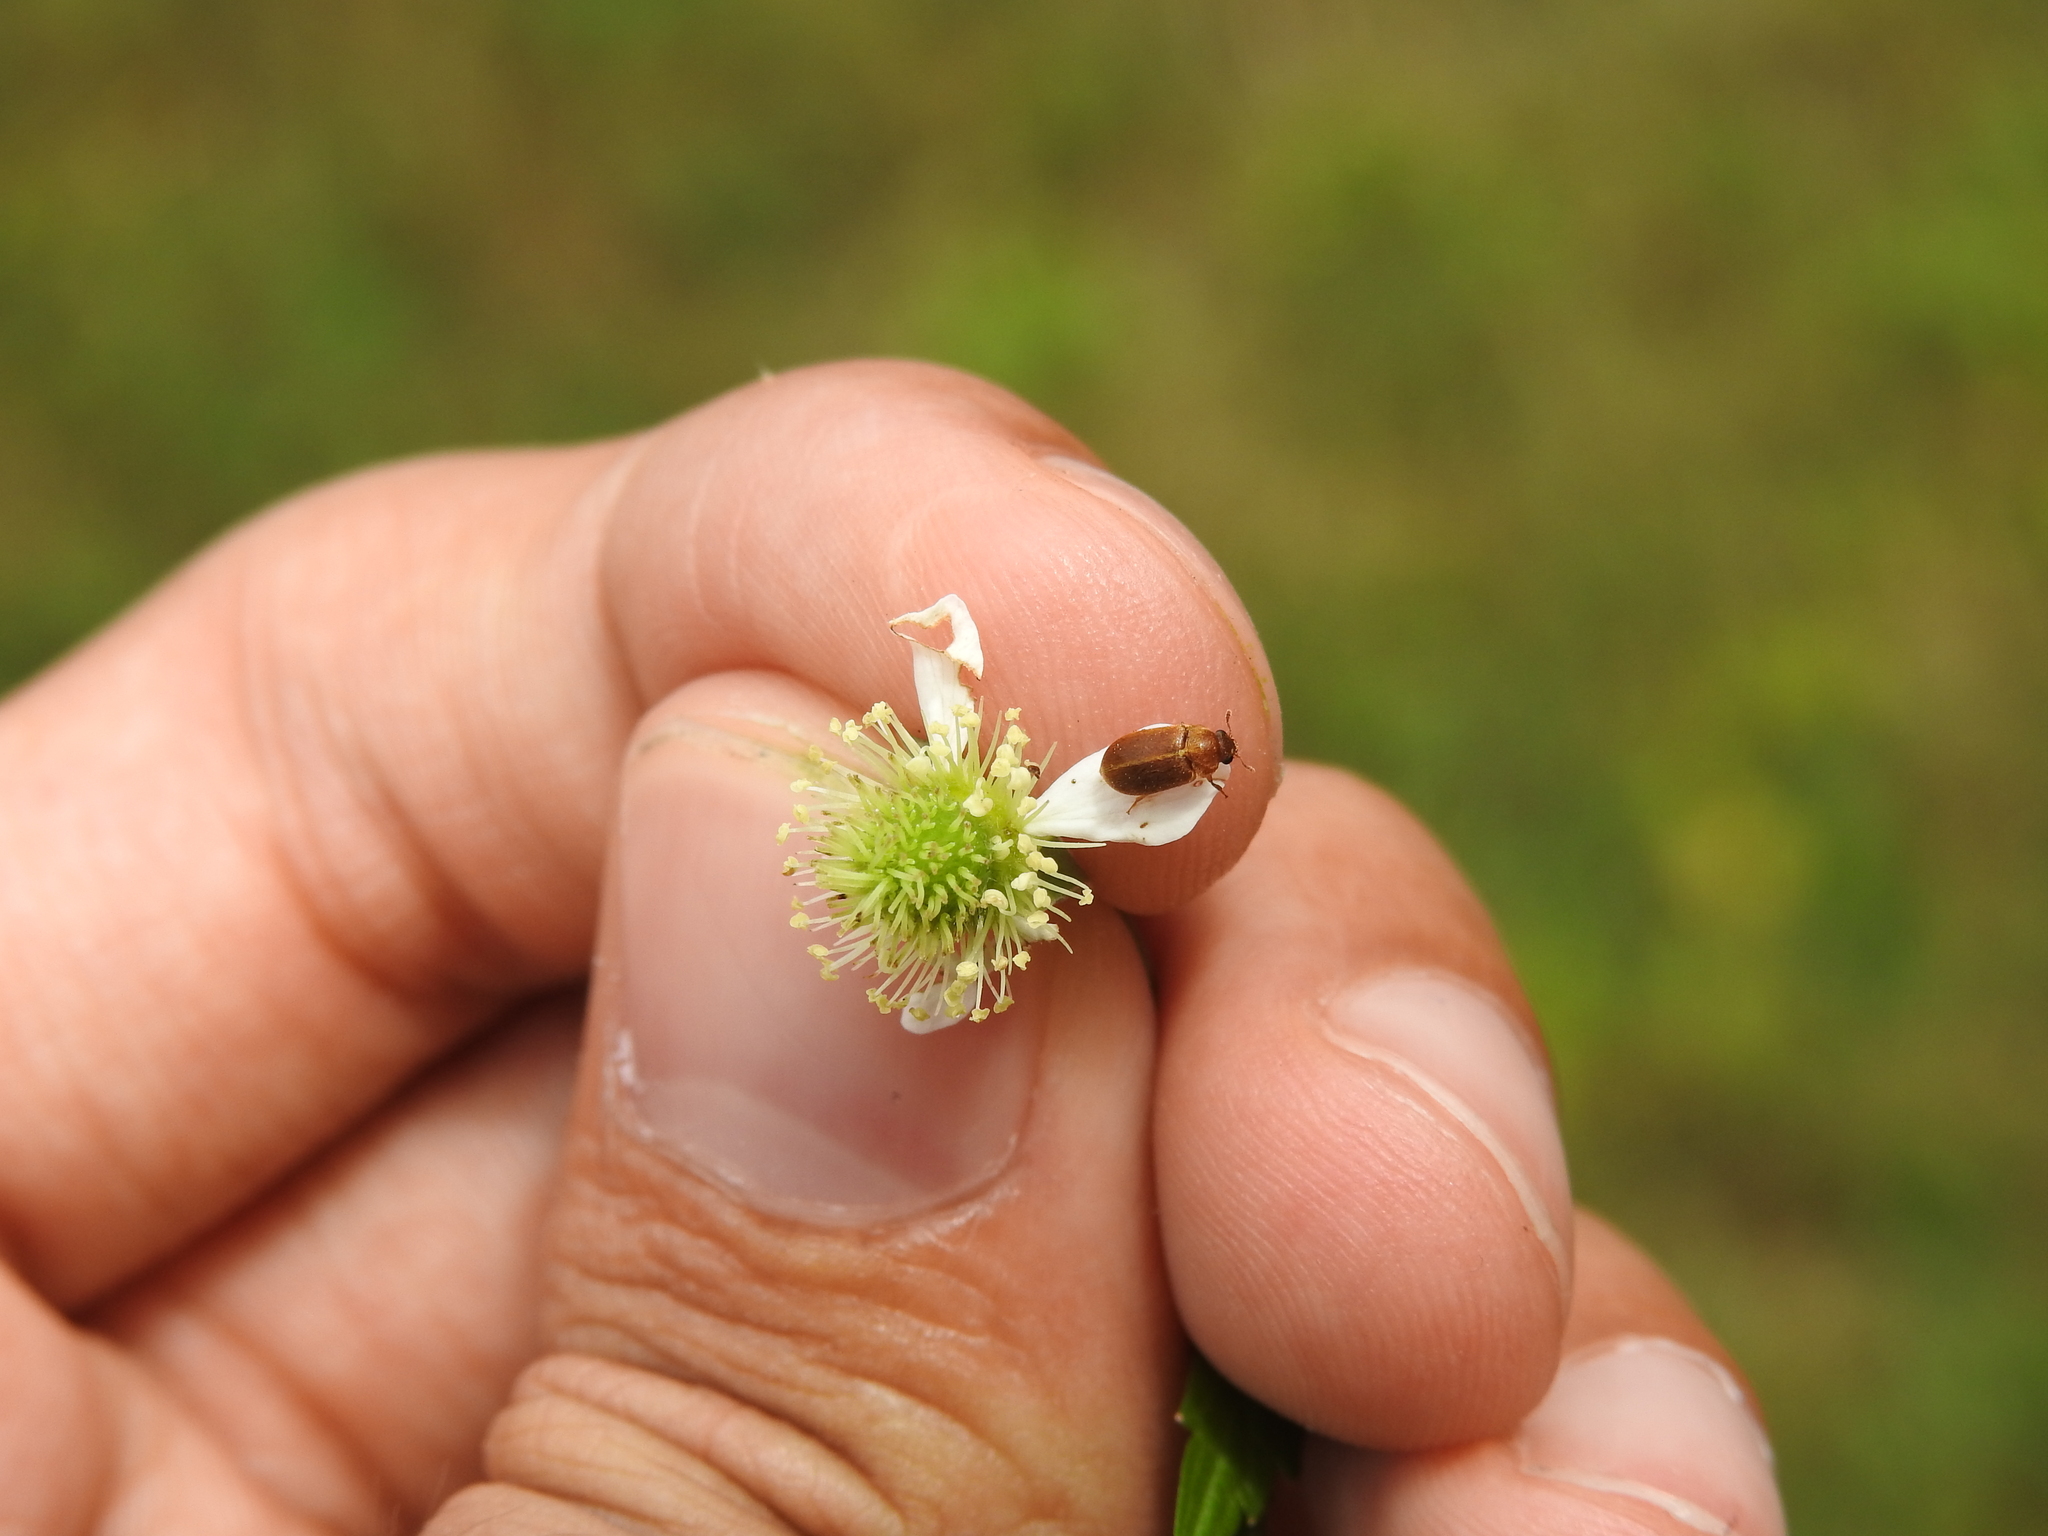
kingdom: Animalia
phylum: Arthropoda
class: Insecta
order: Coleoptera
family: Byturidae
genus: Byturus
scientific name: Byturus unicolor
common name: Raspberry fruitworm beetle
